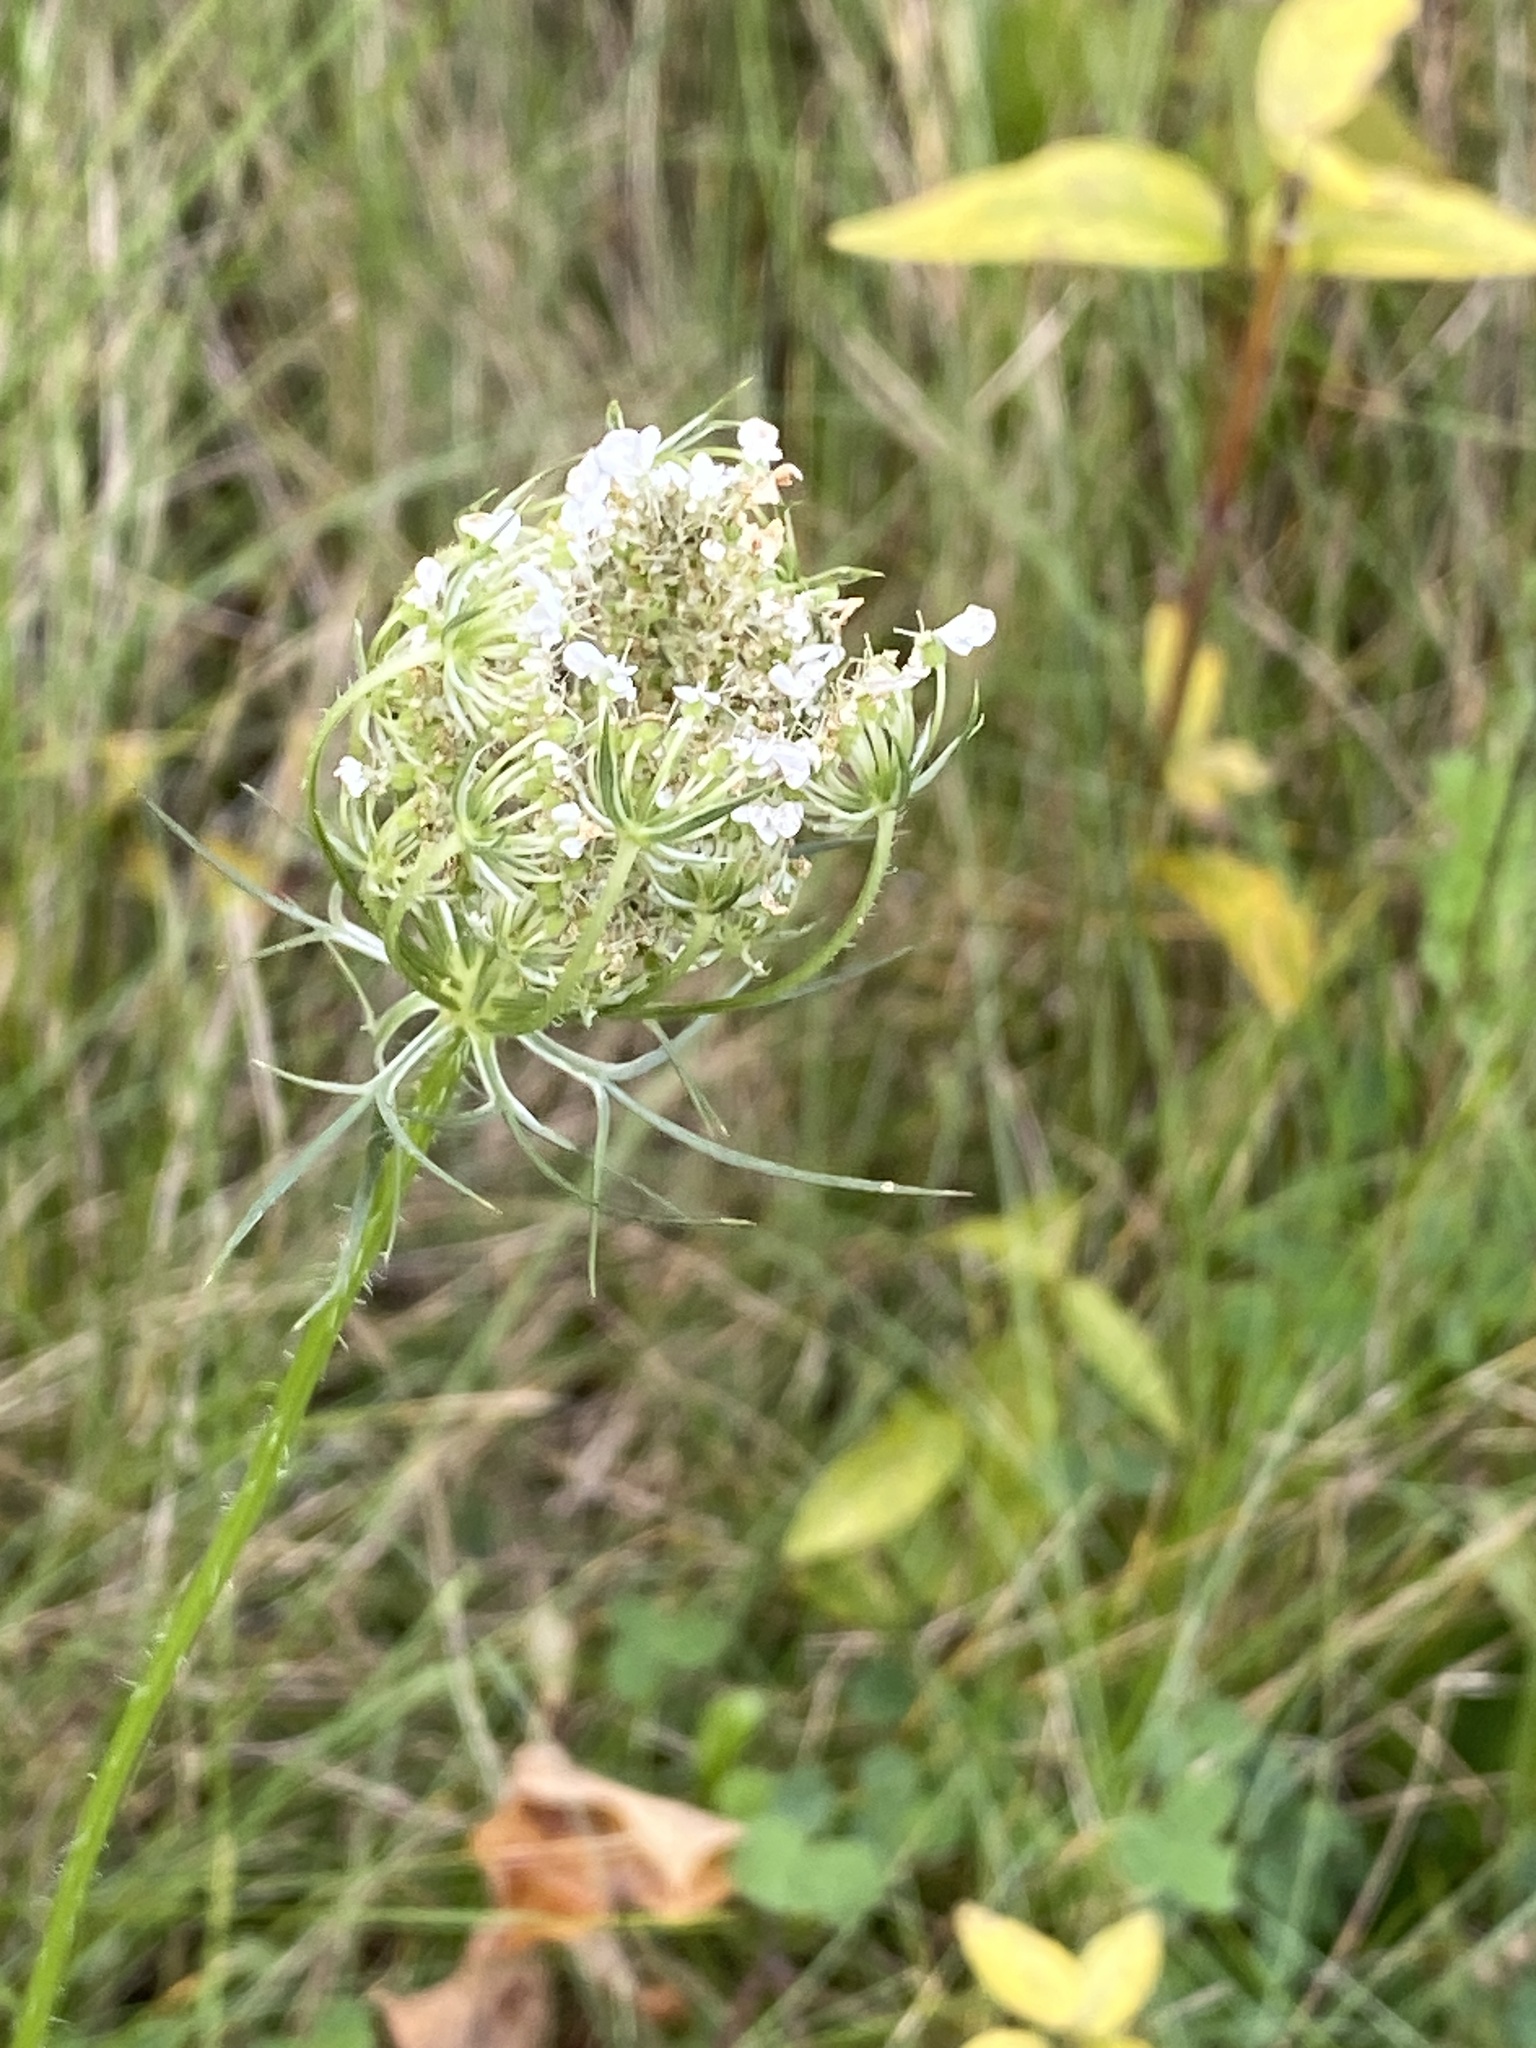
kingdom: Plantae
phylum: Tracheophyta
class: Magnoliopsida
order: Apiales
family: Apiaceae
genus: Daucus
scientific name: Daucus carota
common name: Wild carrot
